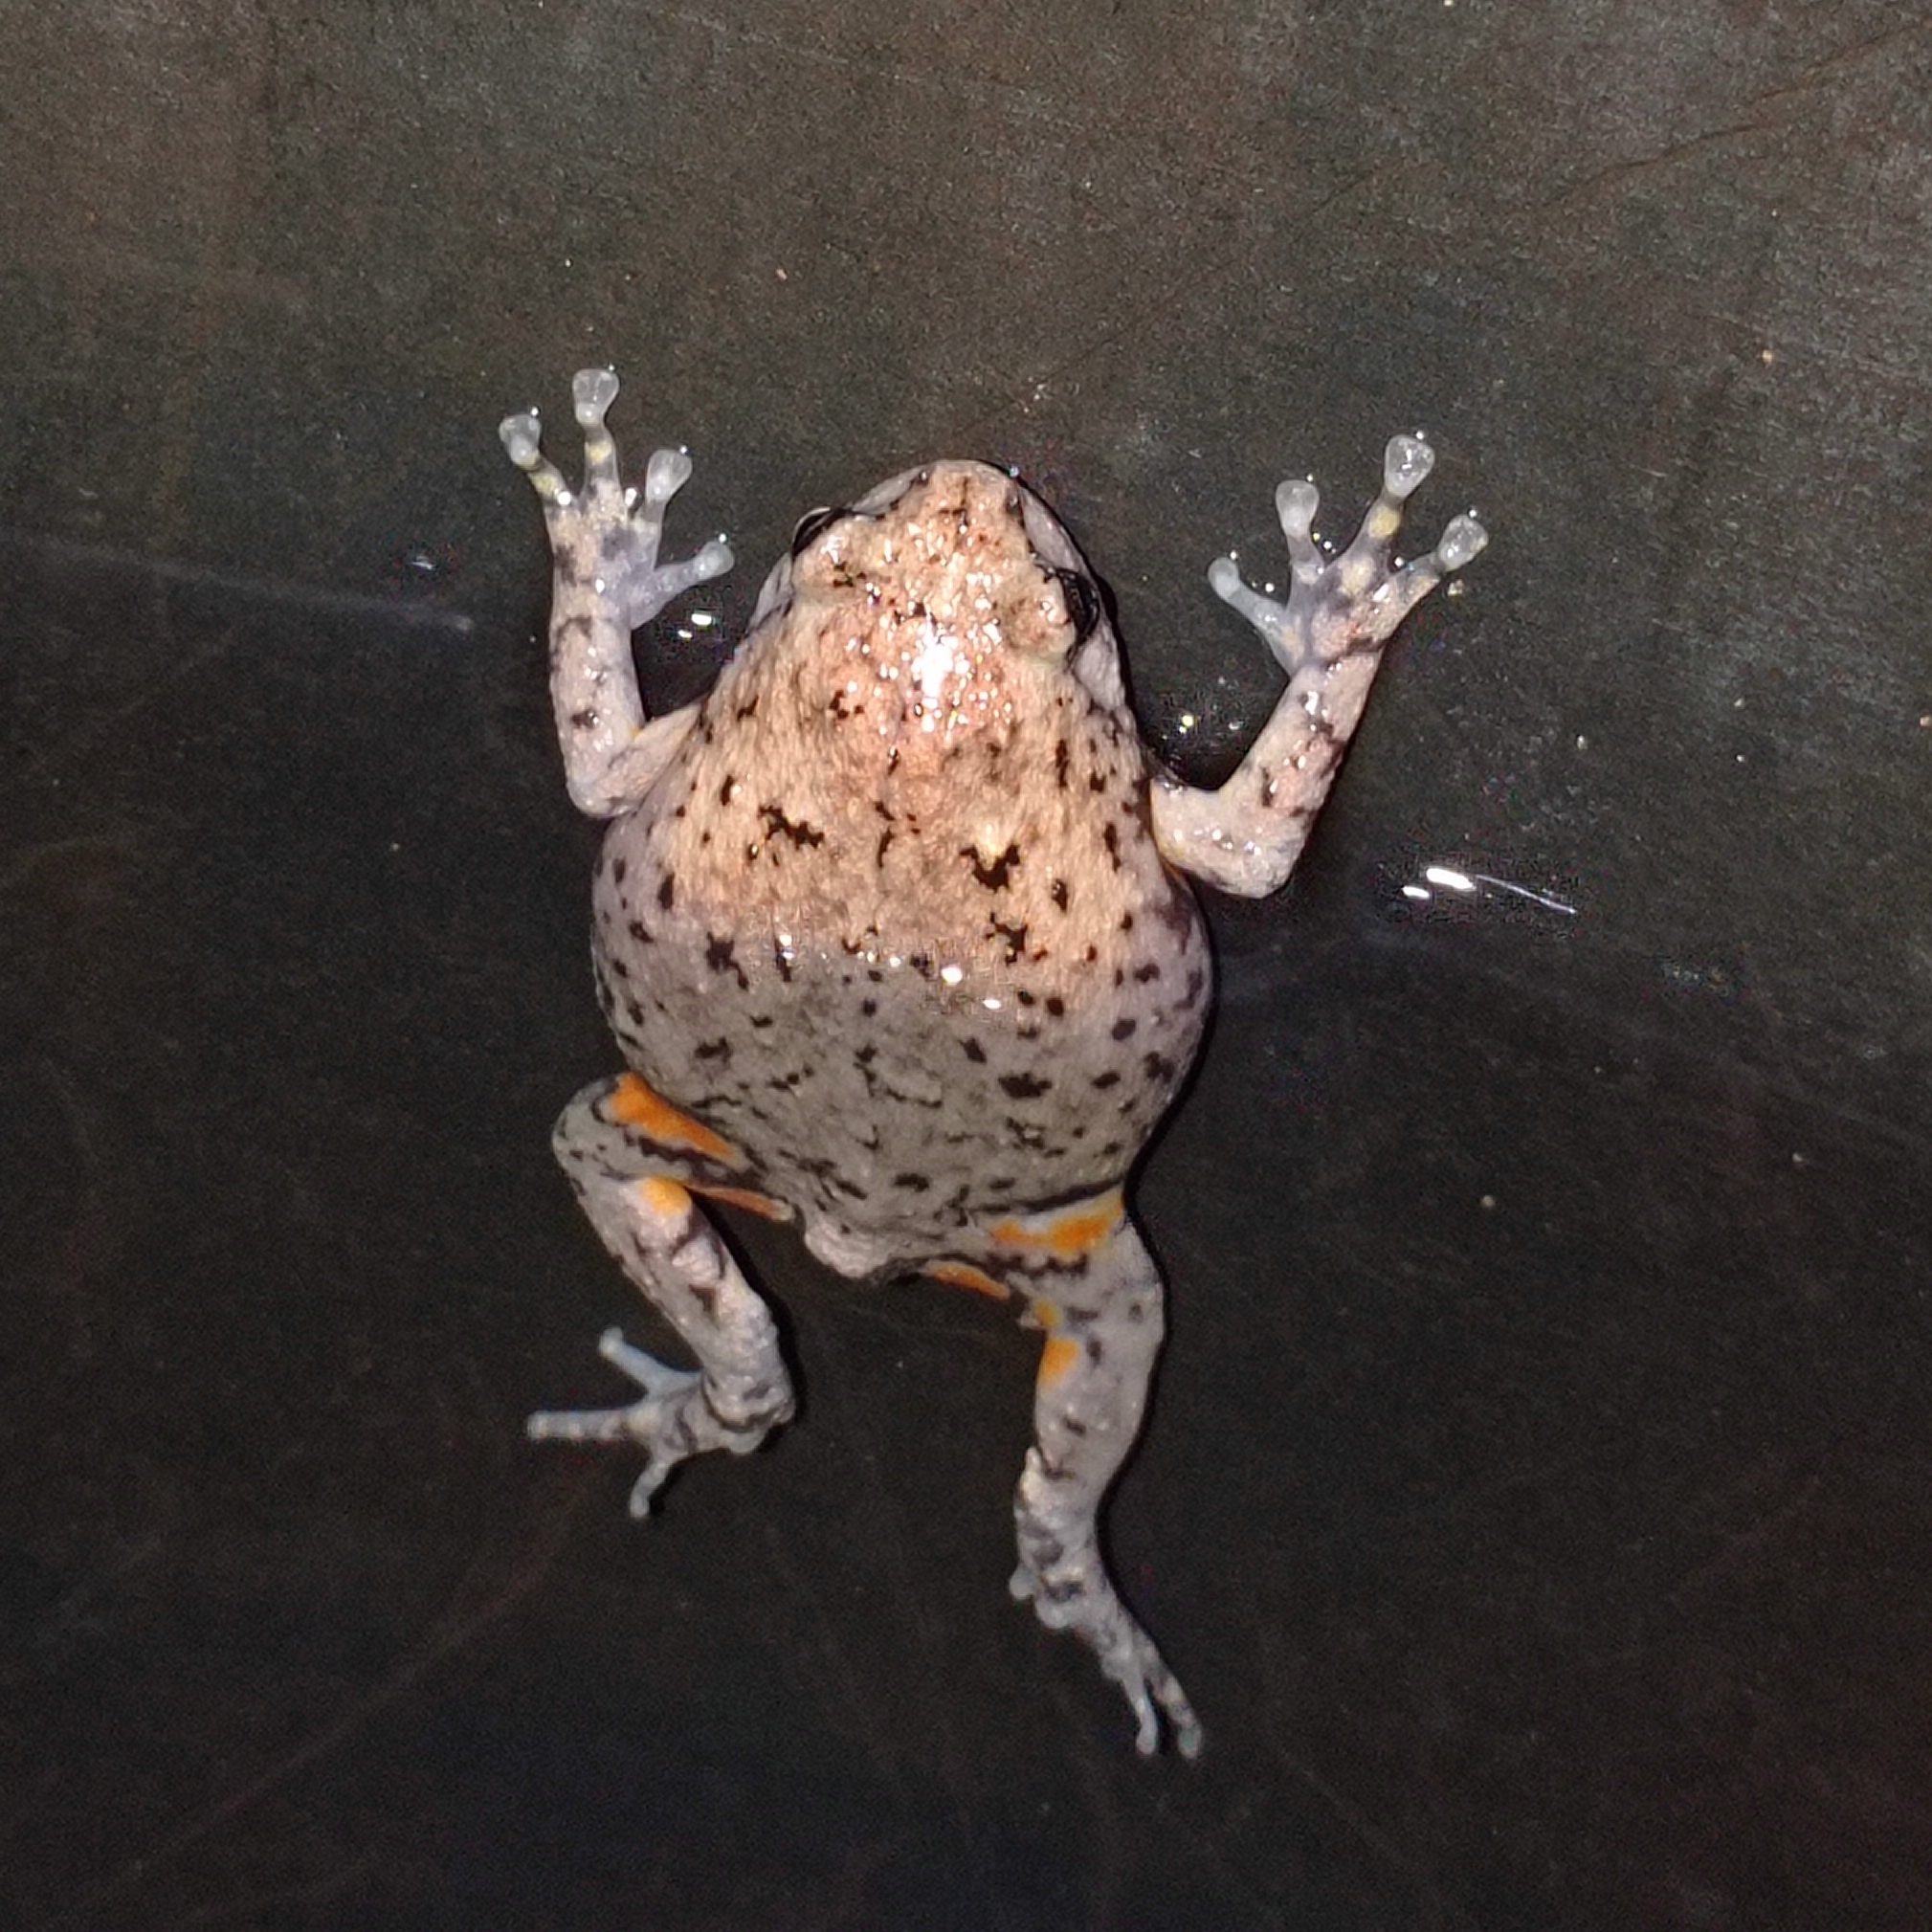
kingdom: Animalia
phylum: Chordata
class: Amphibia
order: Anura
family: Microhylidae
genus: Kaloula
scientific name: Kaloula baleata
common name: Brown,javanese bullfrog
